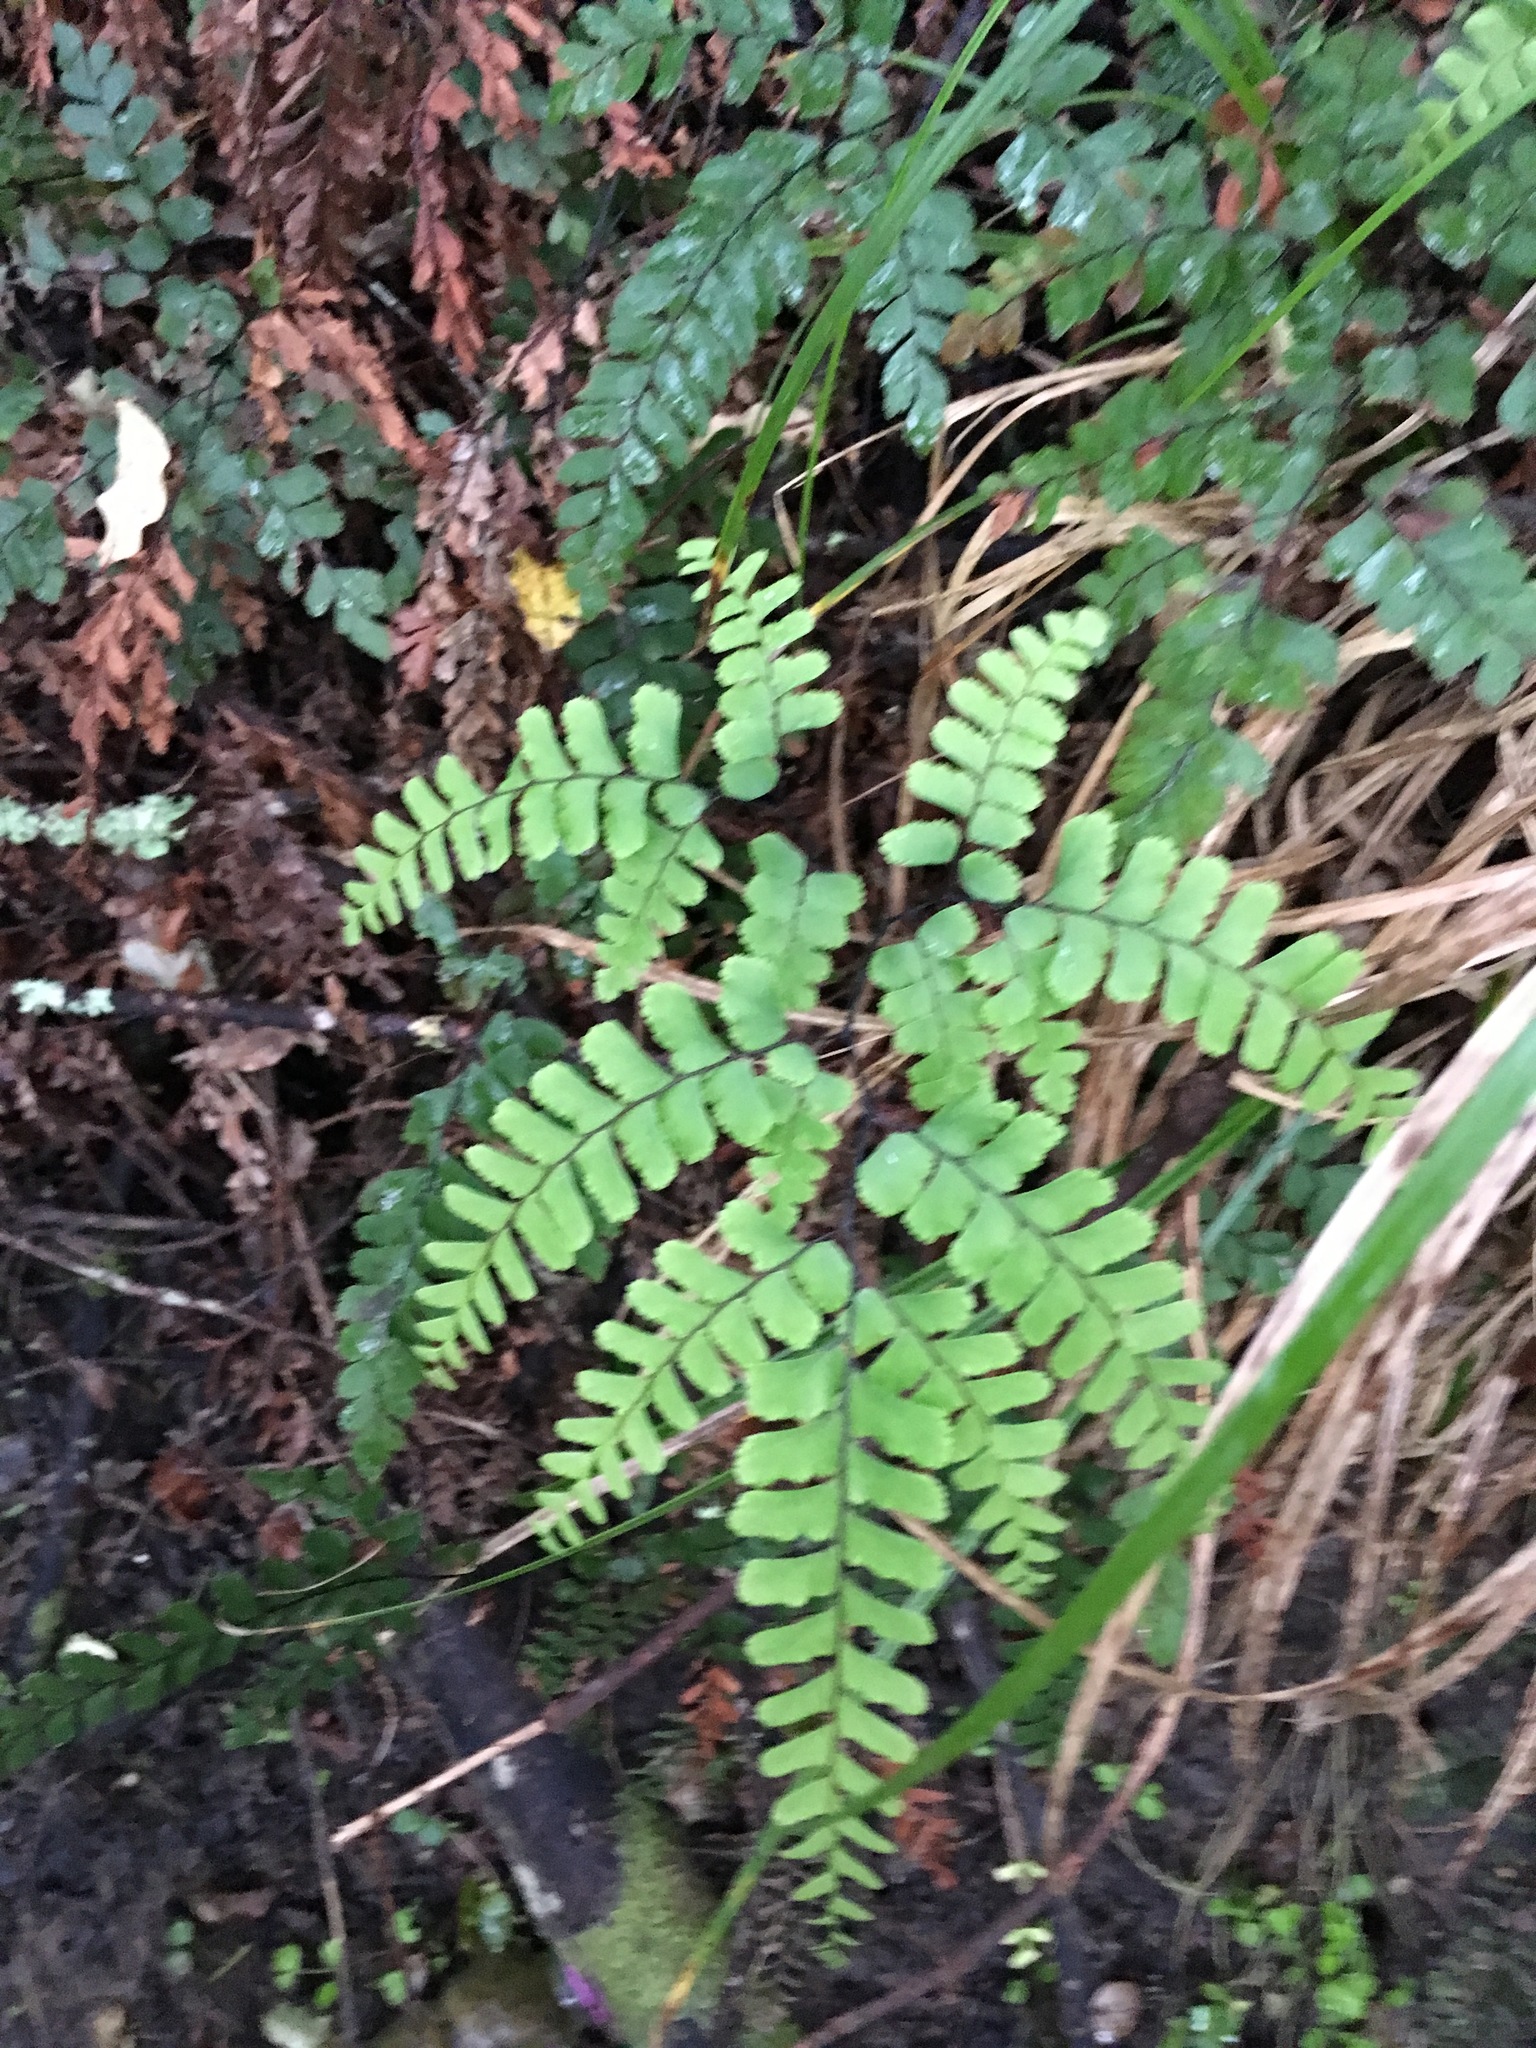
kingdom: Plantae
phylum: Tracheophyta
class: Polypodiopsida
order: Polypodiales
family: Pteridaceae
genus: Adiantum
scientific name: Adiantum cunninghamii
